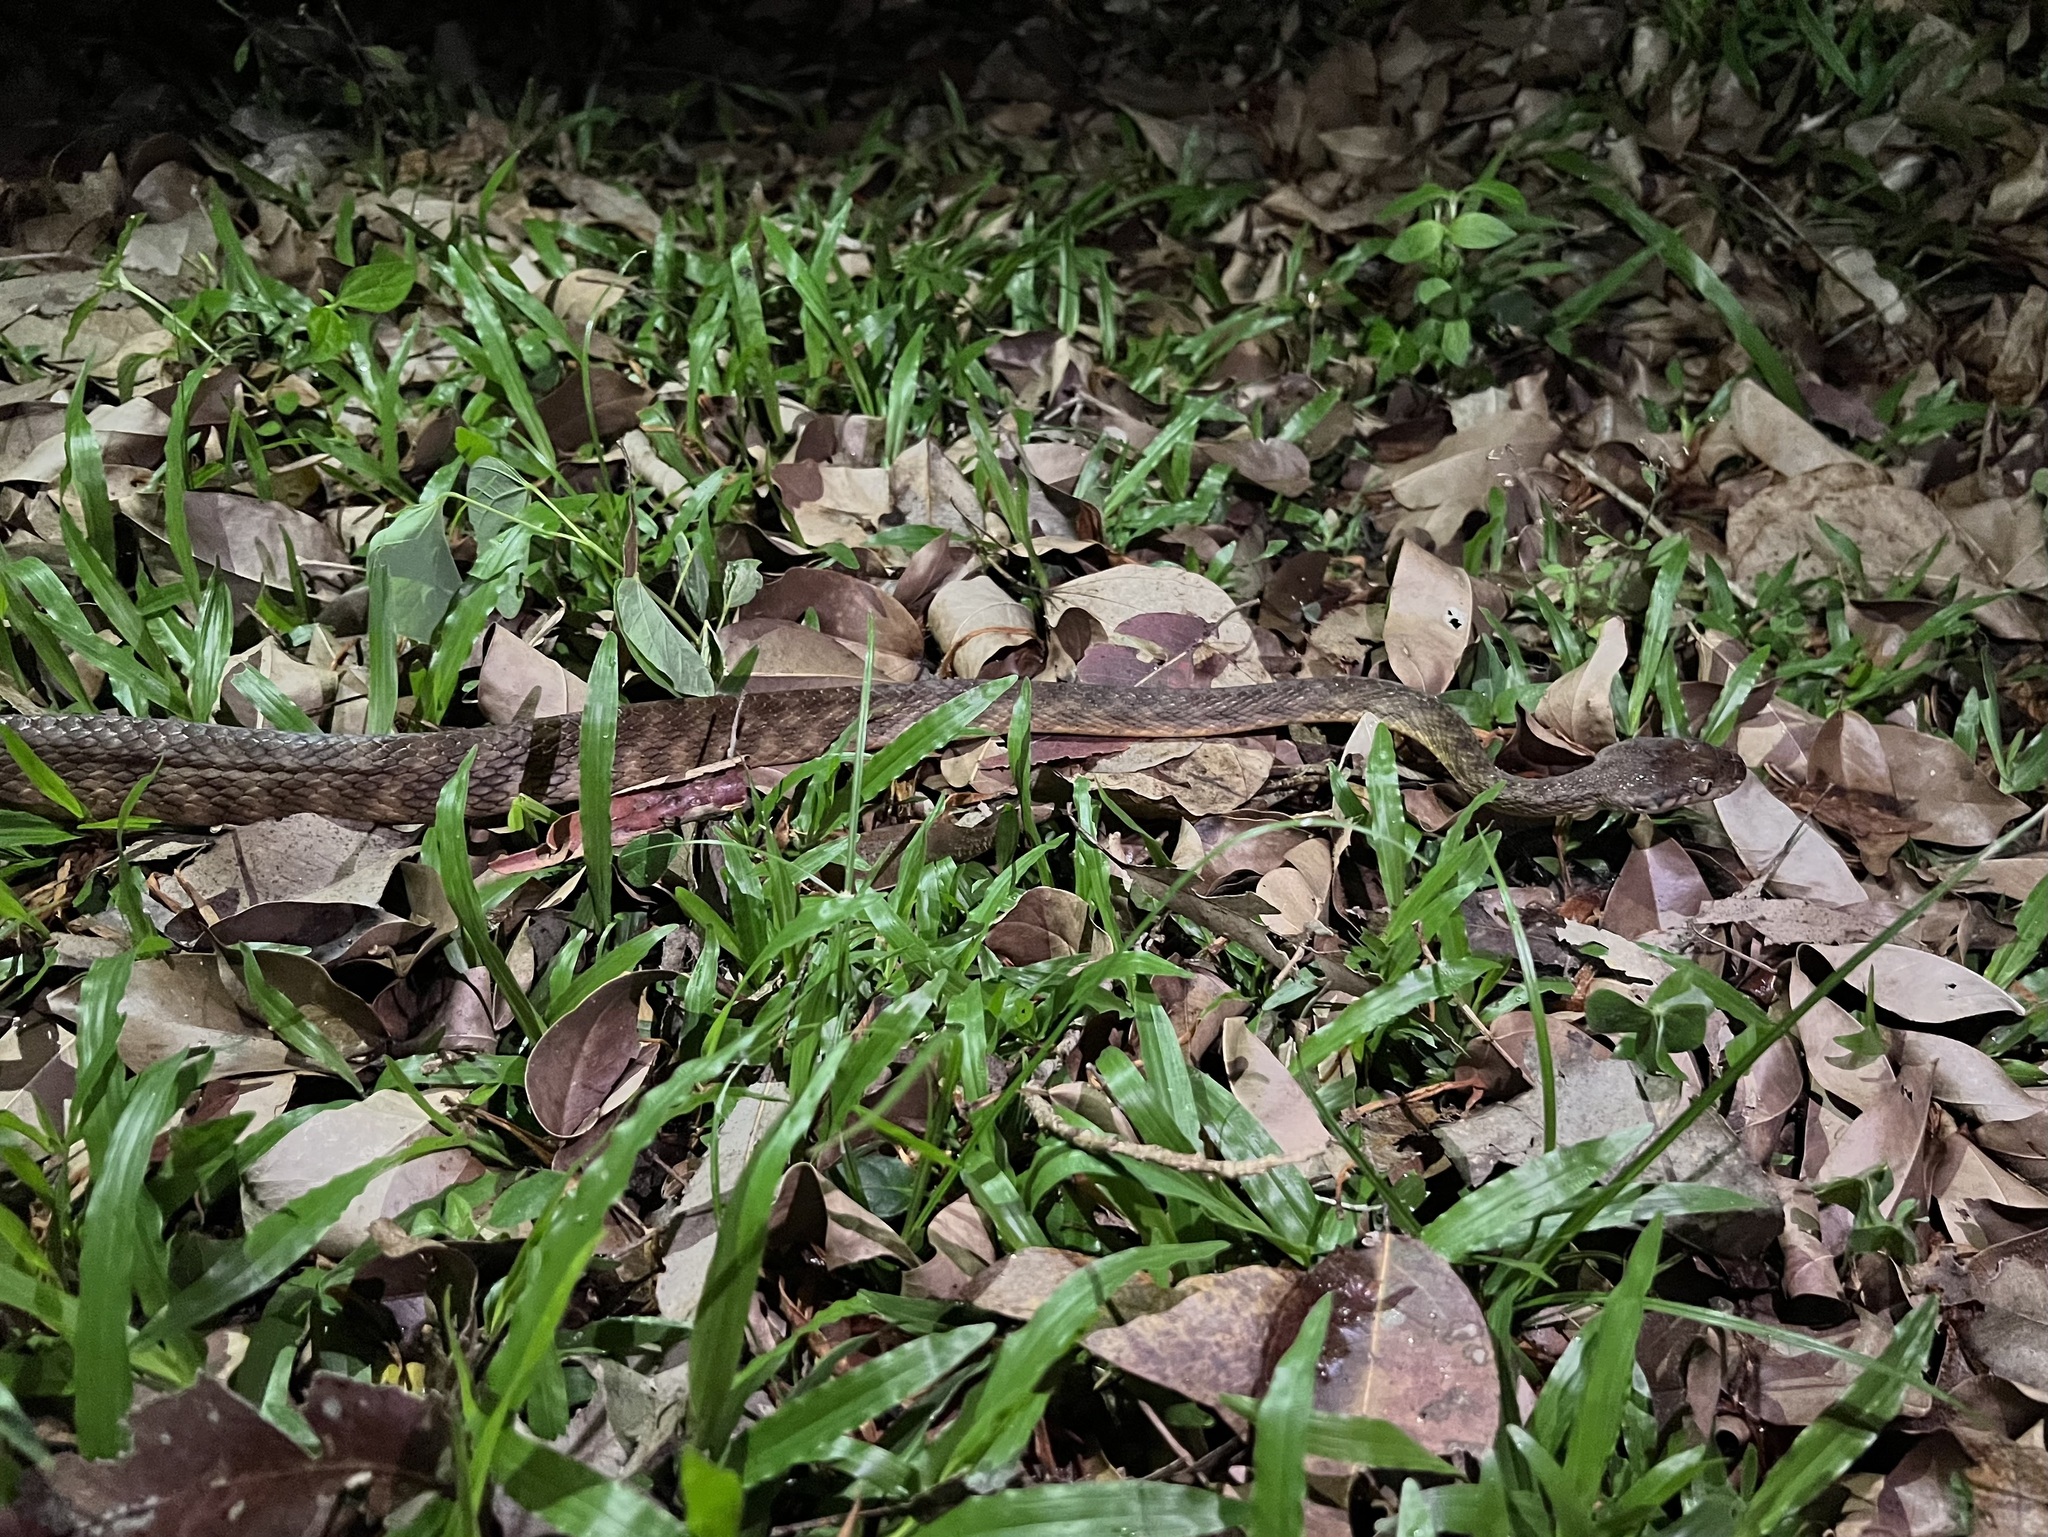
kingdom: Animalia
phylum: Chordata
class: Squamata
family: Colubridae
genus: Boiga
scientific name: Boiga irregularis
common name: Brown tree snake
